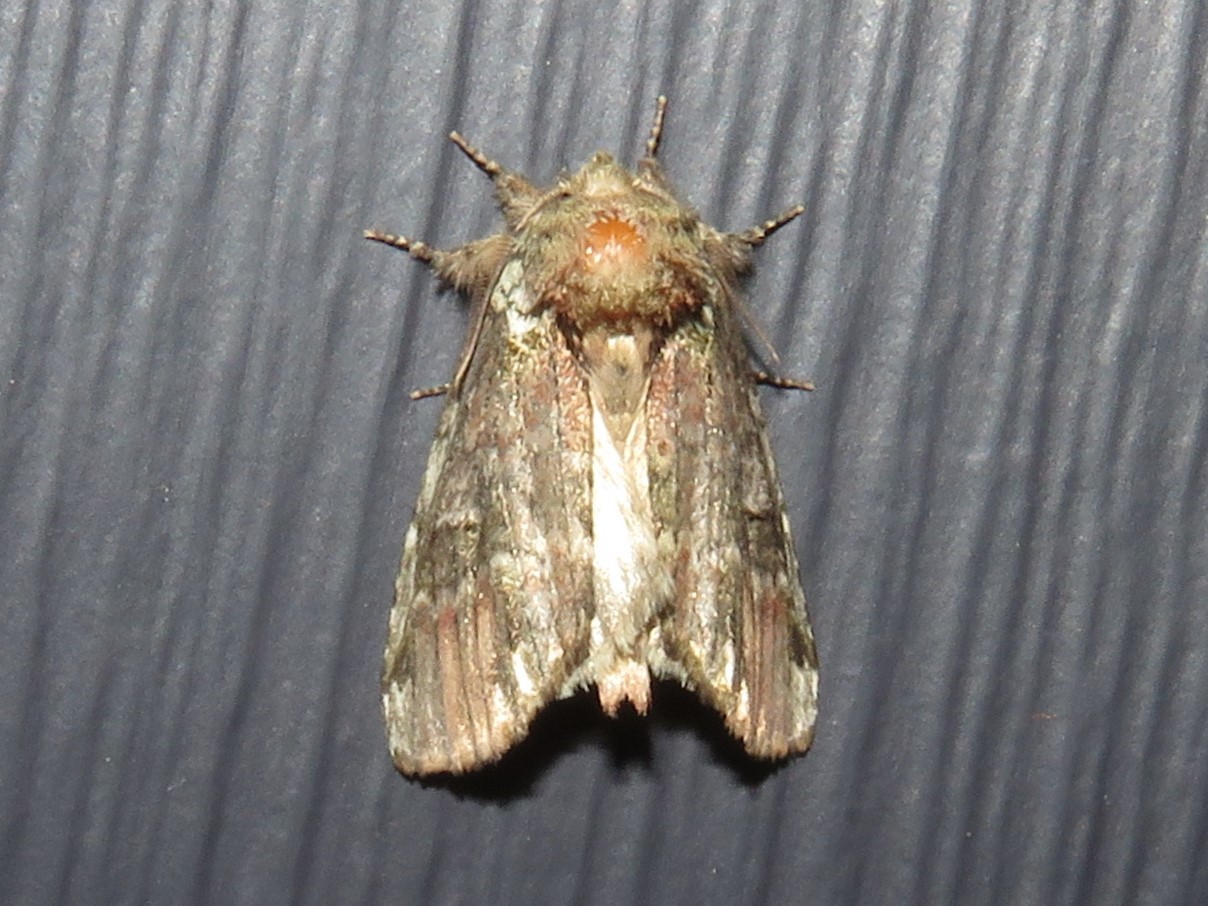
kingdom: Animalia
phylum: Arthropoda
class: Insecta
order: Lepidoptera
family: Notodontidae
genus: Schizura
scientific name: Schizura
